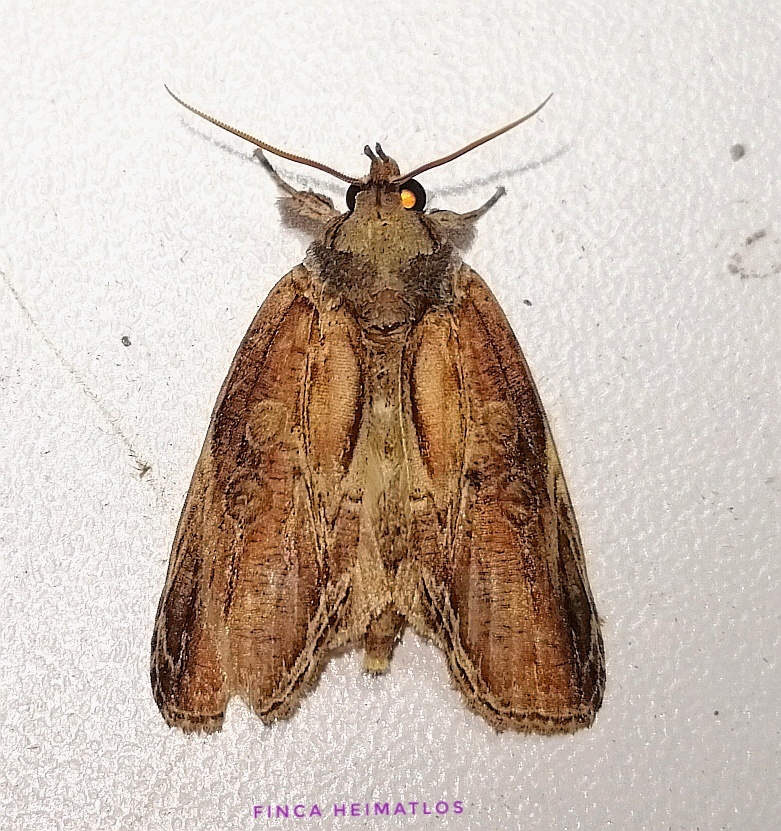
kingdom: Animalia
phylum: Arthropoda
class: Insecta
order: Lepidoptera
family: Nolidae
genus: Iscadia
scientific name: Iscadia purpurascens
